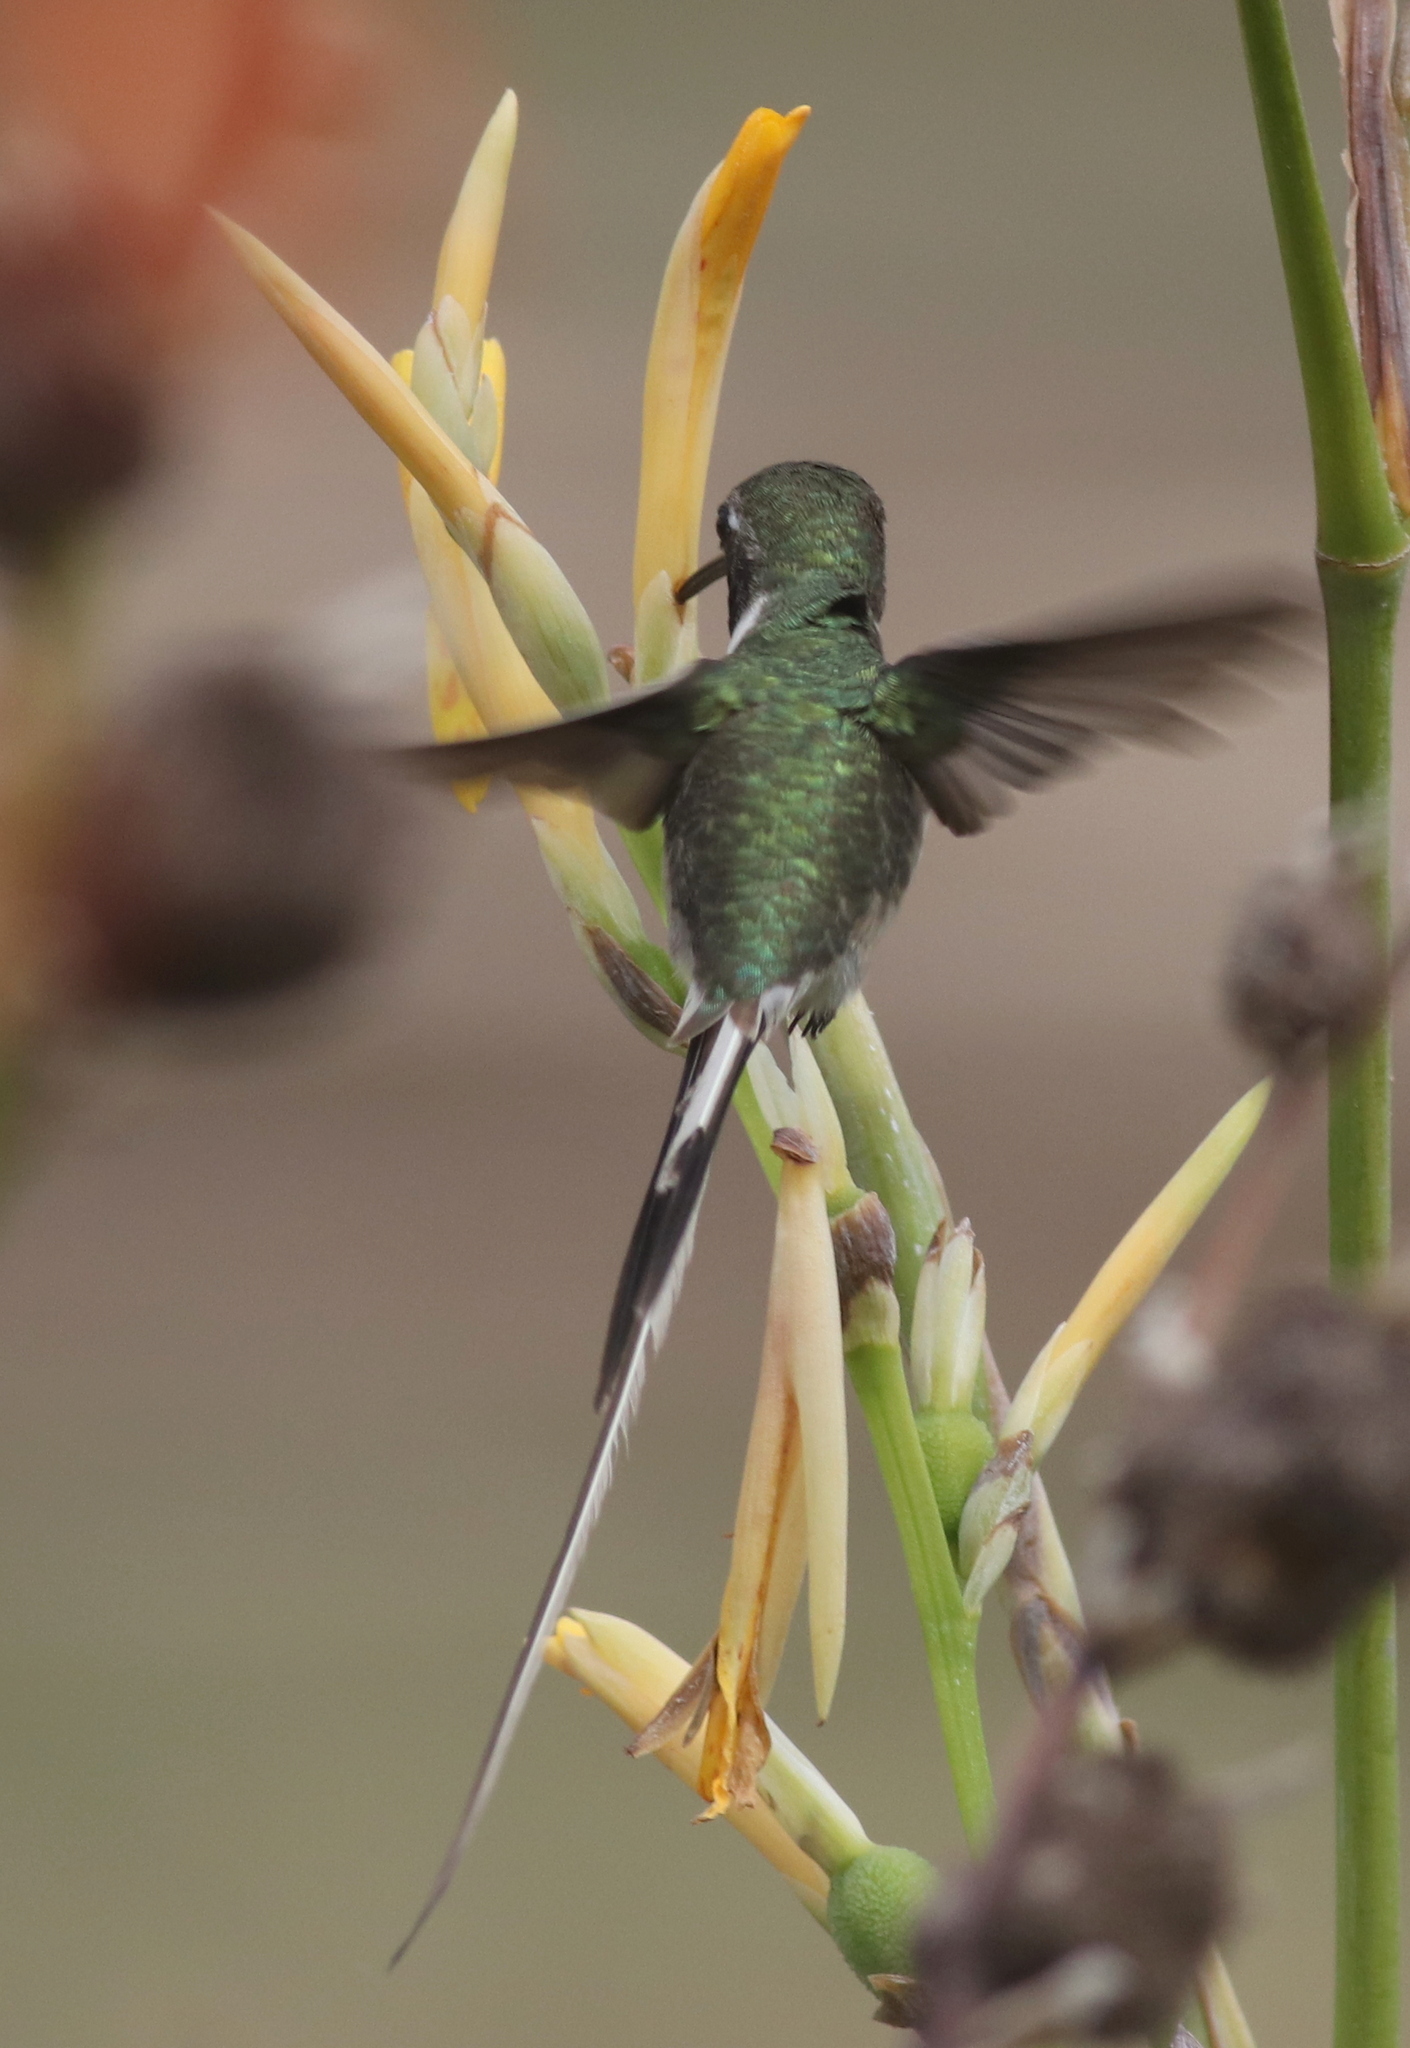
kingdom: Animalia
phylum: Chordata
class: Aves
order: Apodiformes
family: Trochilidae
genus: Thaumastura
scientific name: Thaumastura cora
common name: Peruvian sheartail
